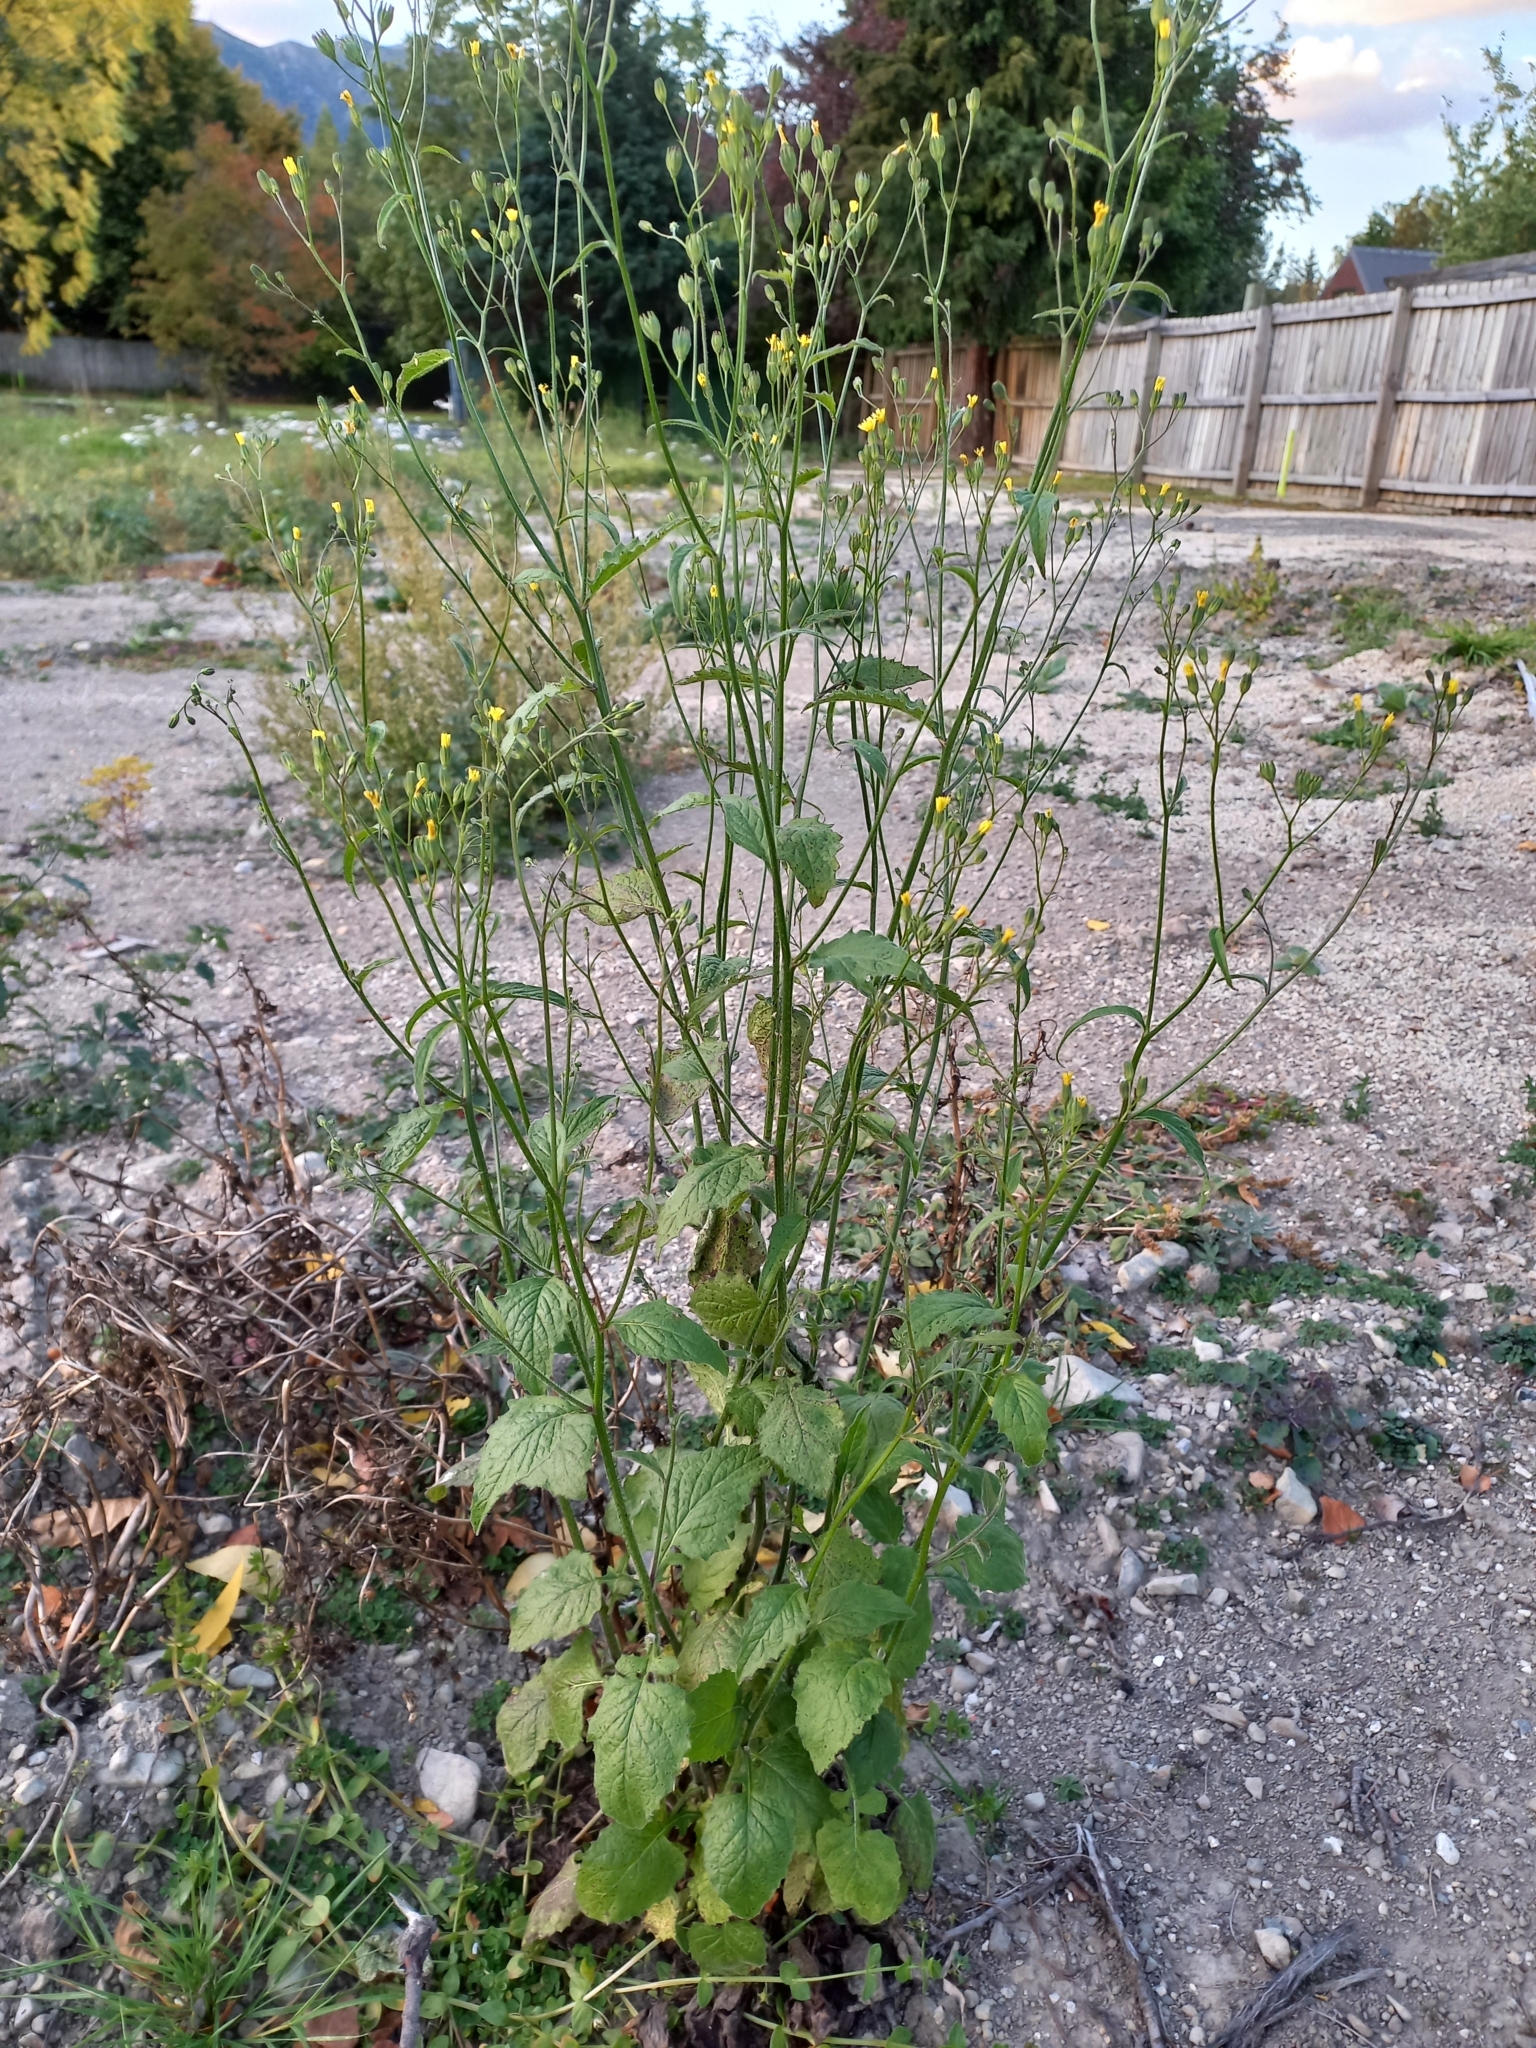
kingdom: Plantae
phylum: Tracheophyta
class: Magnoliopsida
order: Asterales
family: Asteraceae
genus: Lapsana
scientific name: Lapsana communis
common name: Nipplewort
